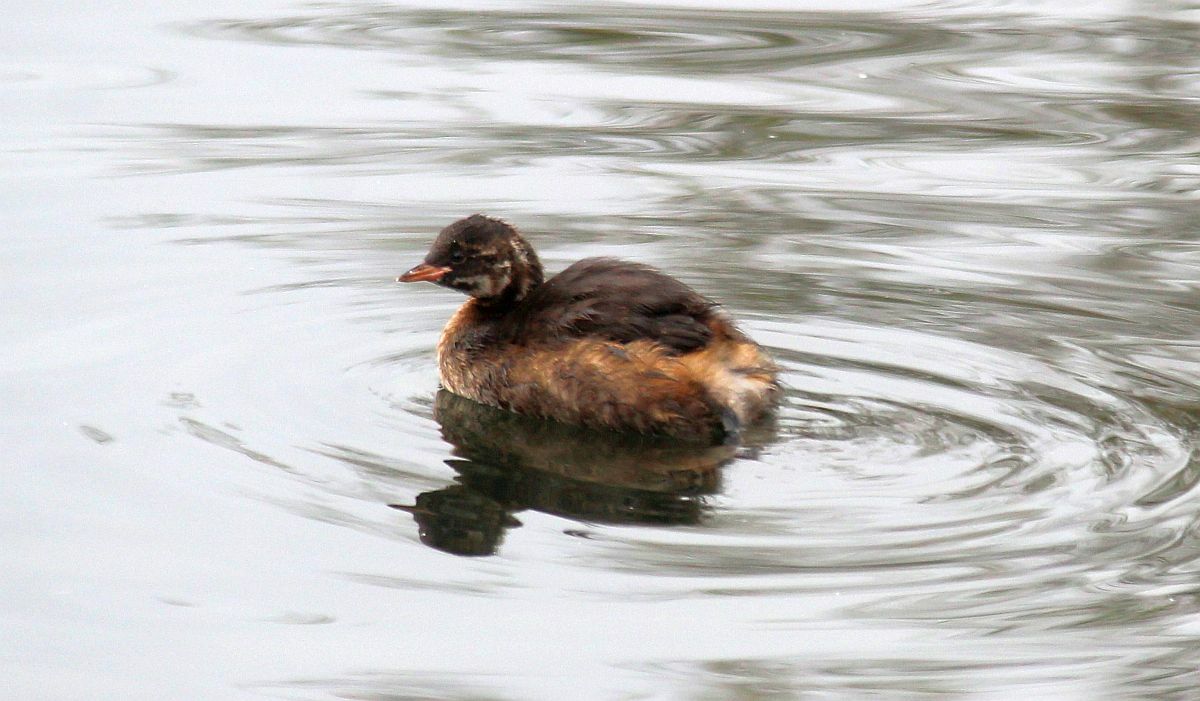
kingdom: Animalia
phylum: Chordata
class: Aves
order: Podicipediformes
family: Podicipedidae
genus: Tachybaptus
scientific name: Tachybaptus ruficollis
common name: Little grebe
